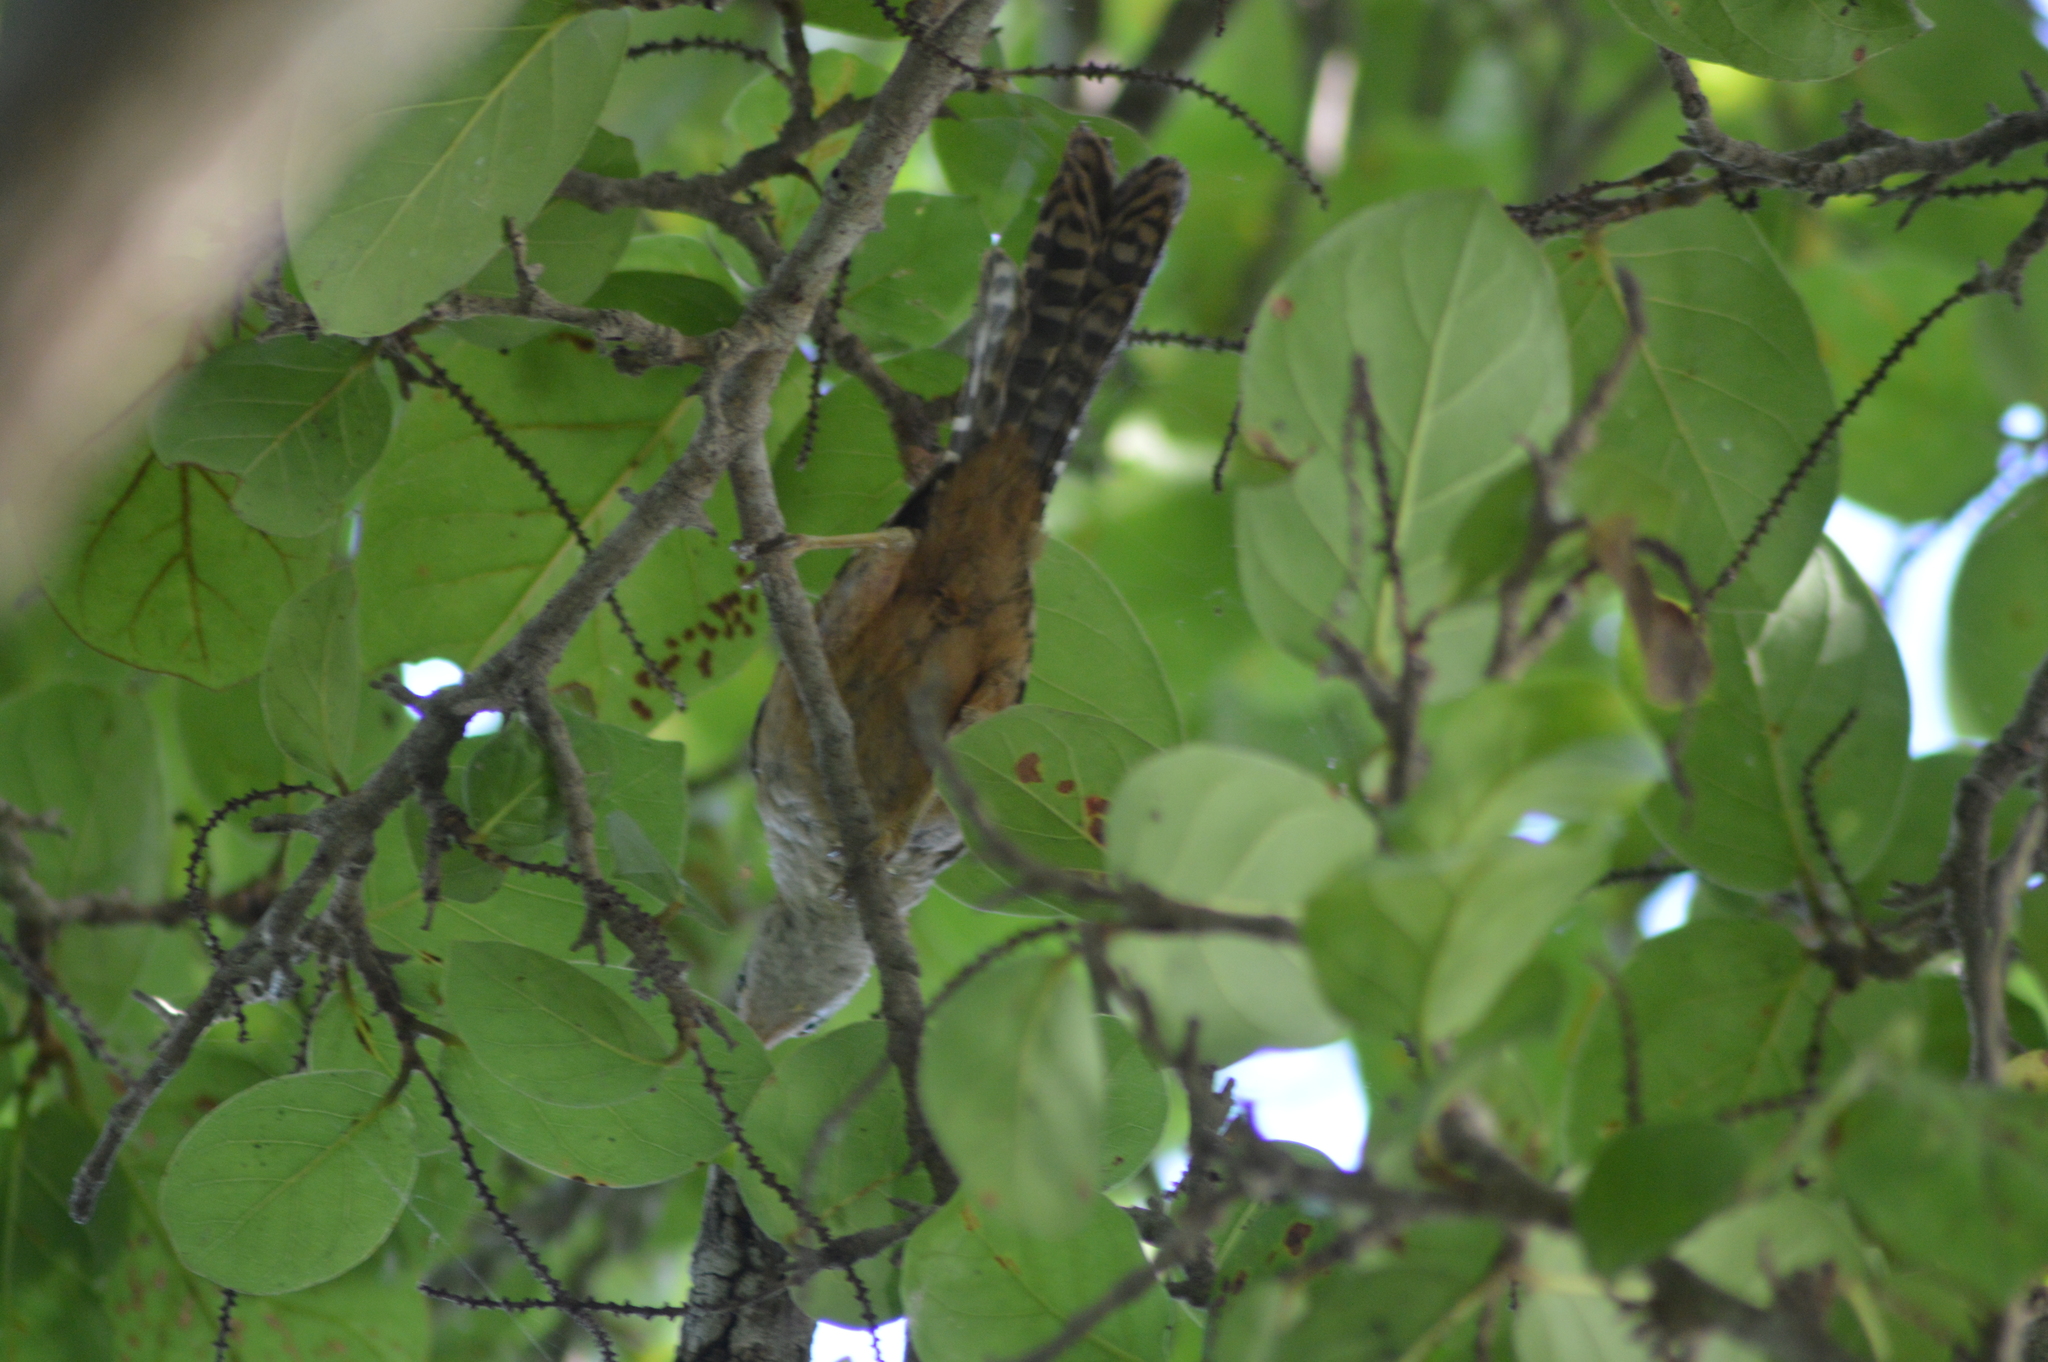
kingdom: Animalia
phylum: Chordata
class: Aves
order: Passeriformes
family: Troglodytidae
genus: Campylorhynchus
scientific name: Campylorhynchus zonatus
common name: Band-backed wren
